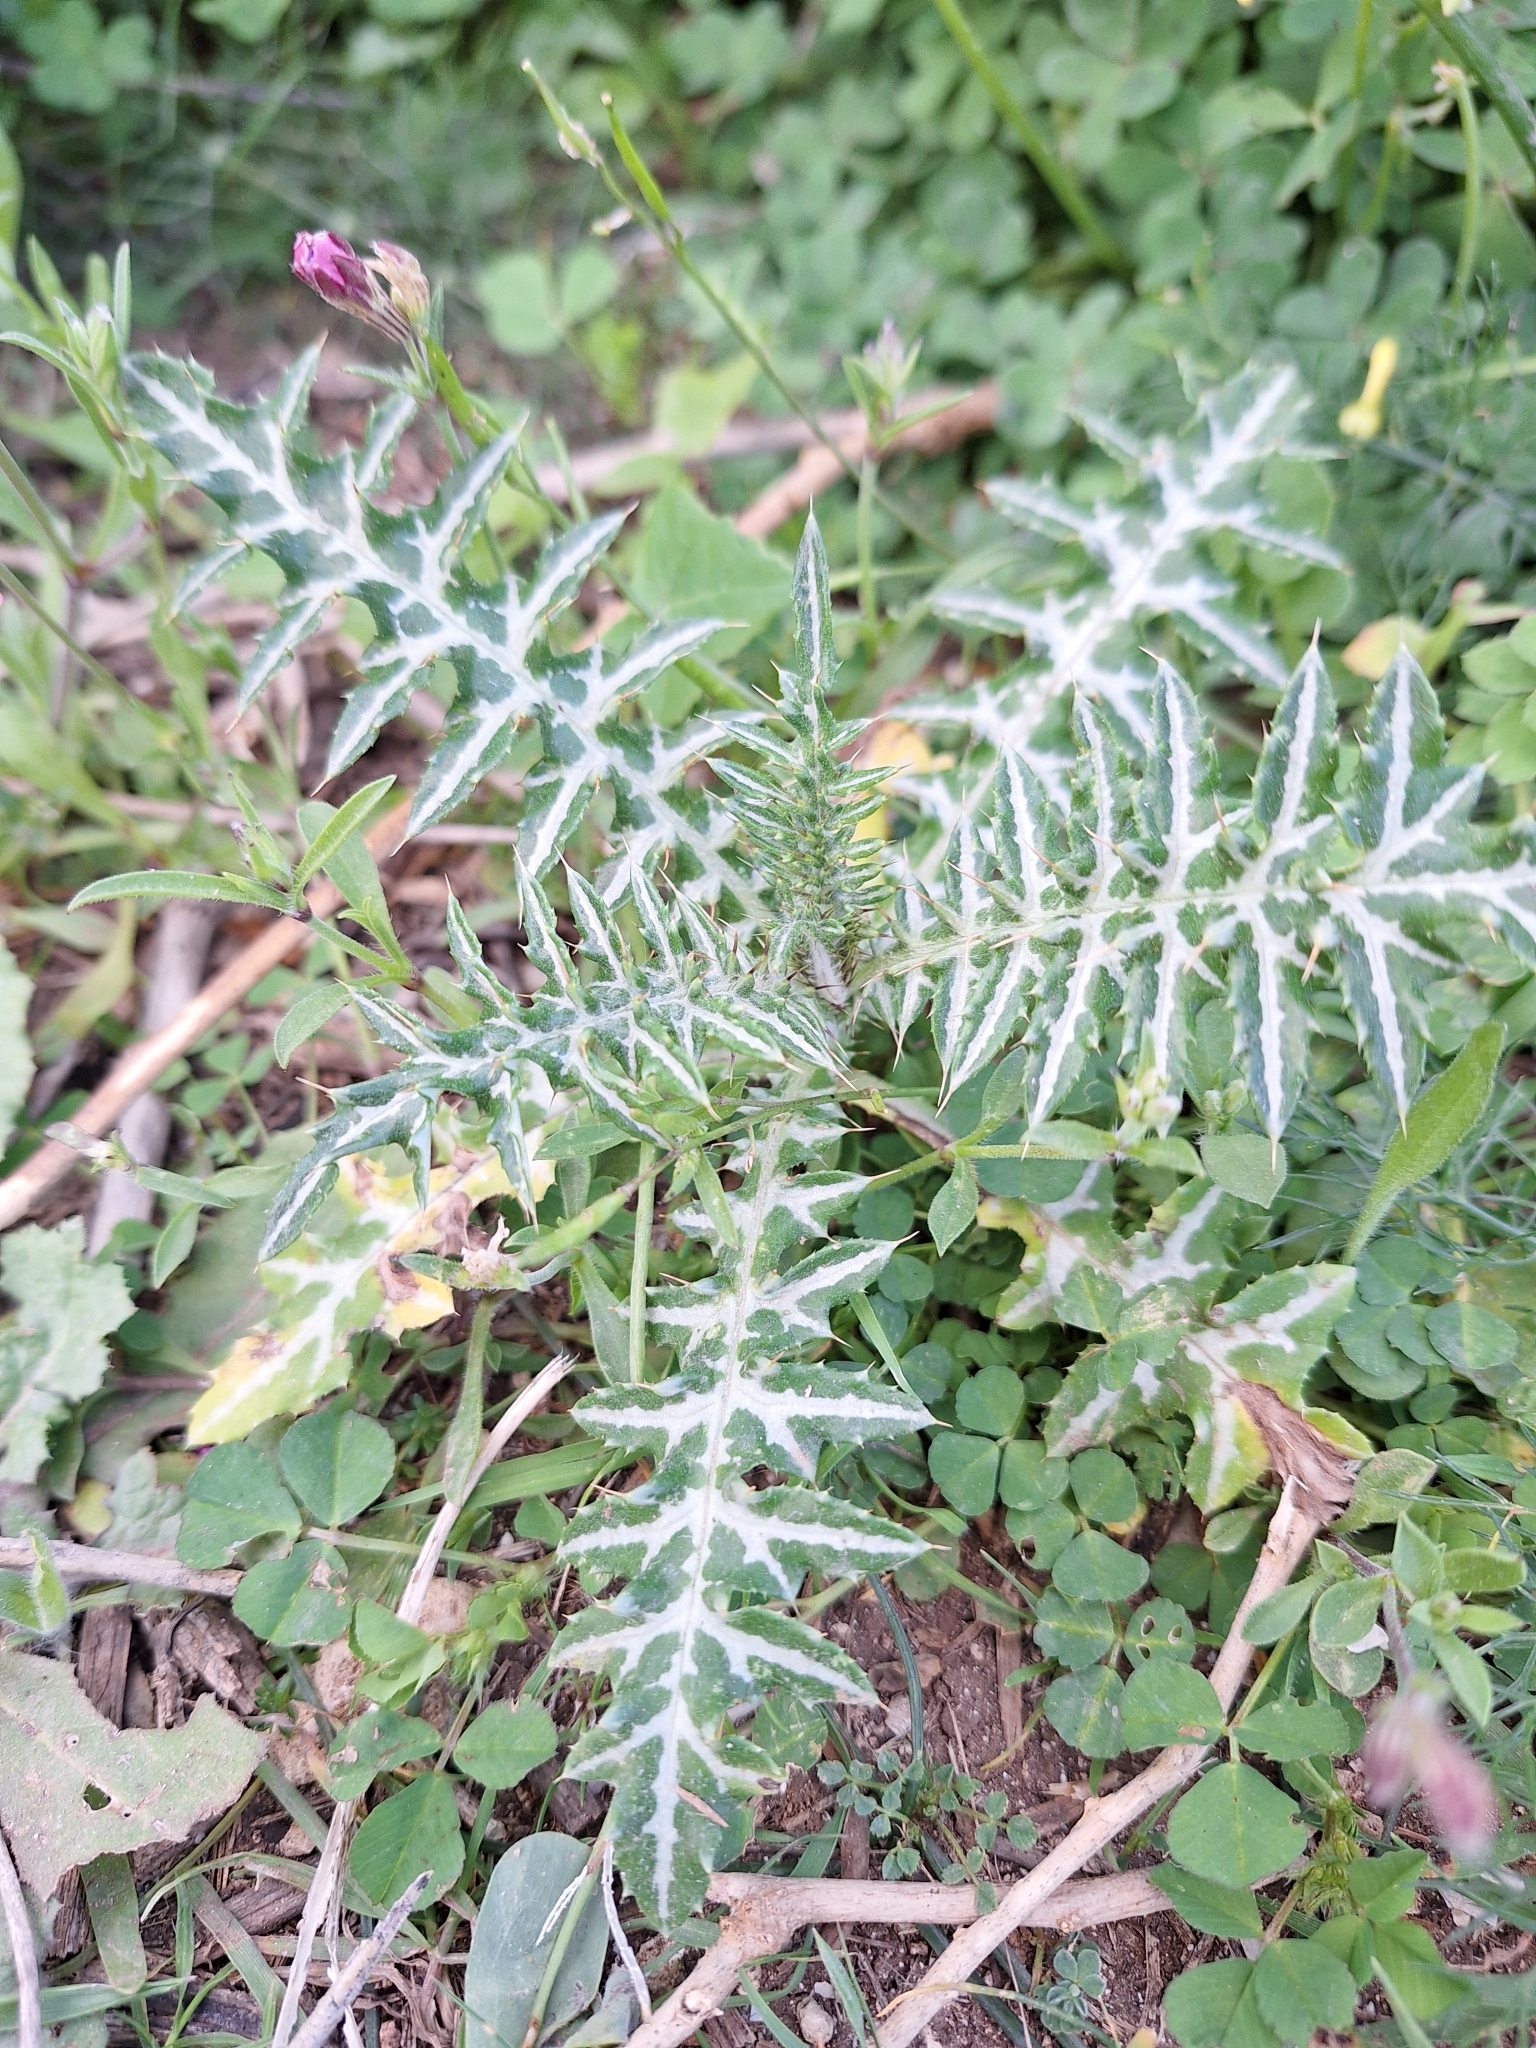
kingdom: Plantae
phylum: Tracheophyta
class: Magnoliopsida
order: Asterales
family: Asteraceae
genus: Galactites
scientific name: Galactites tomentosa
